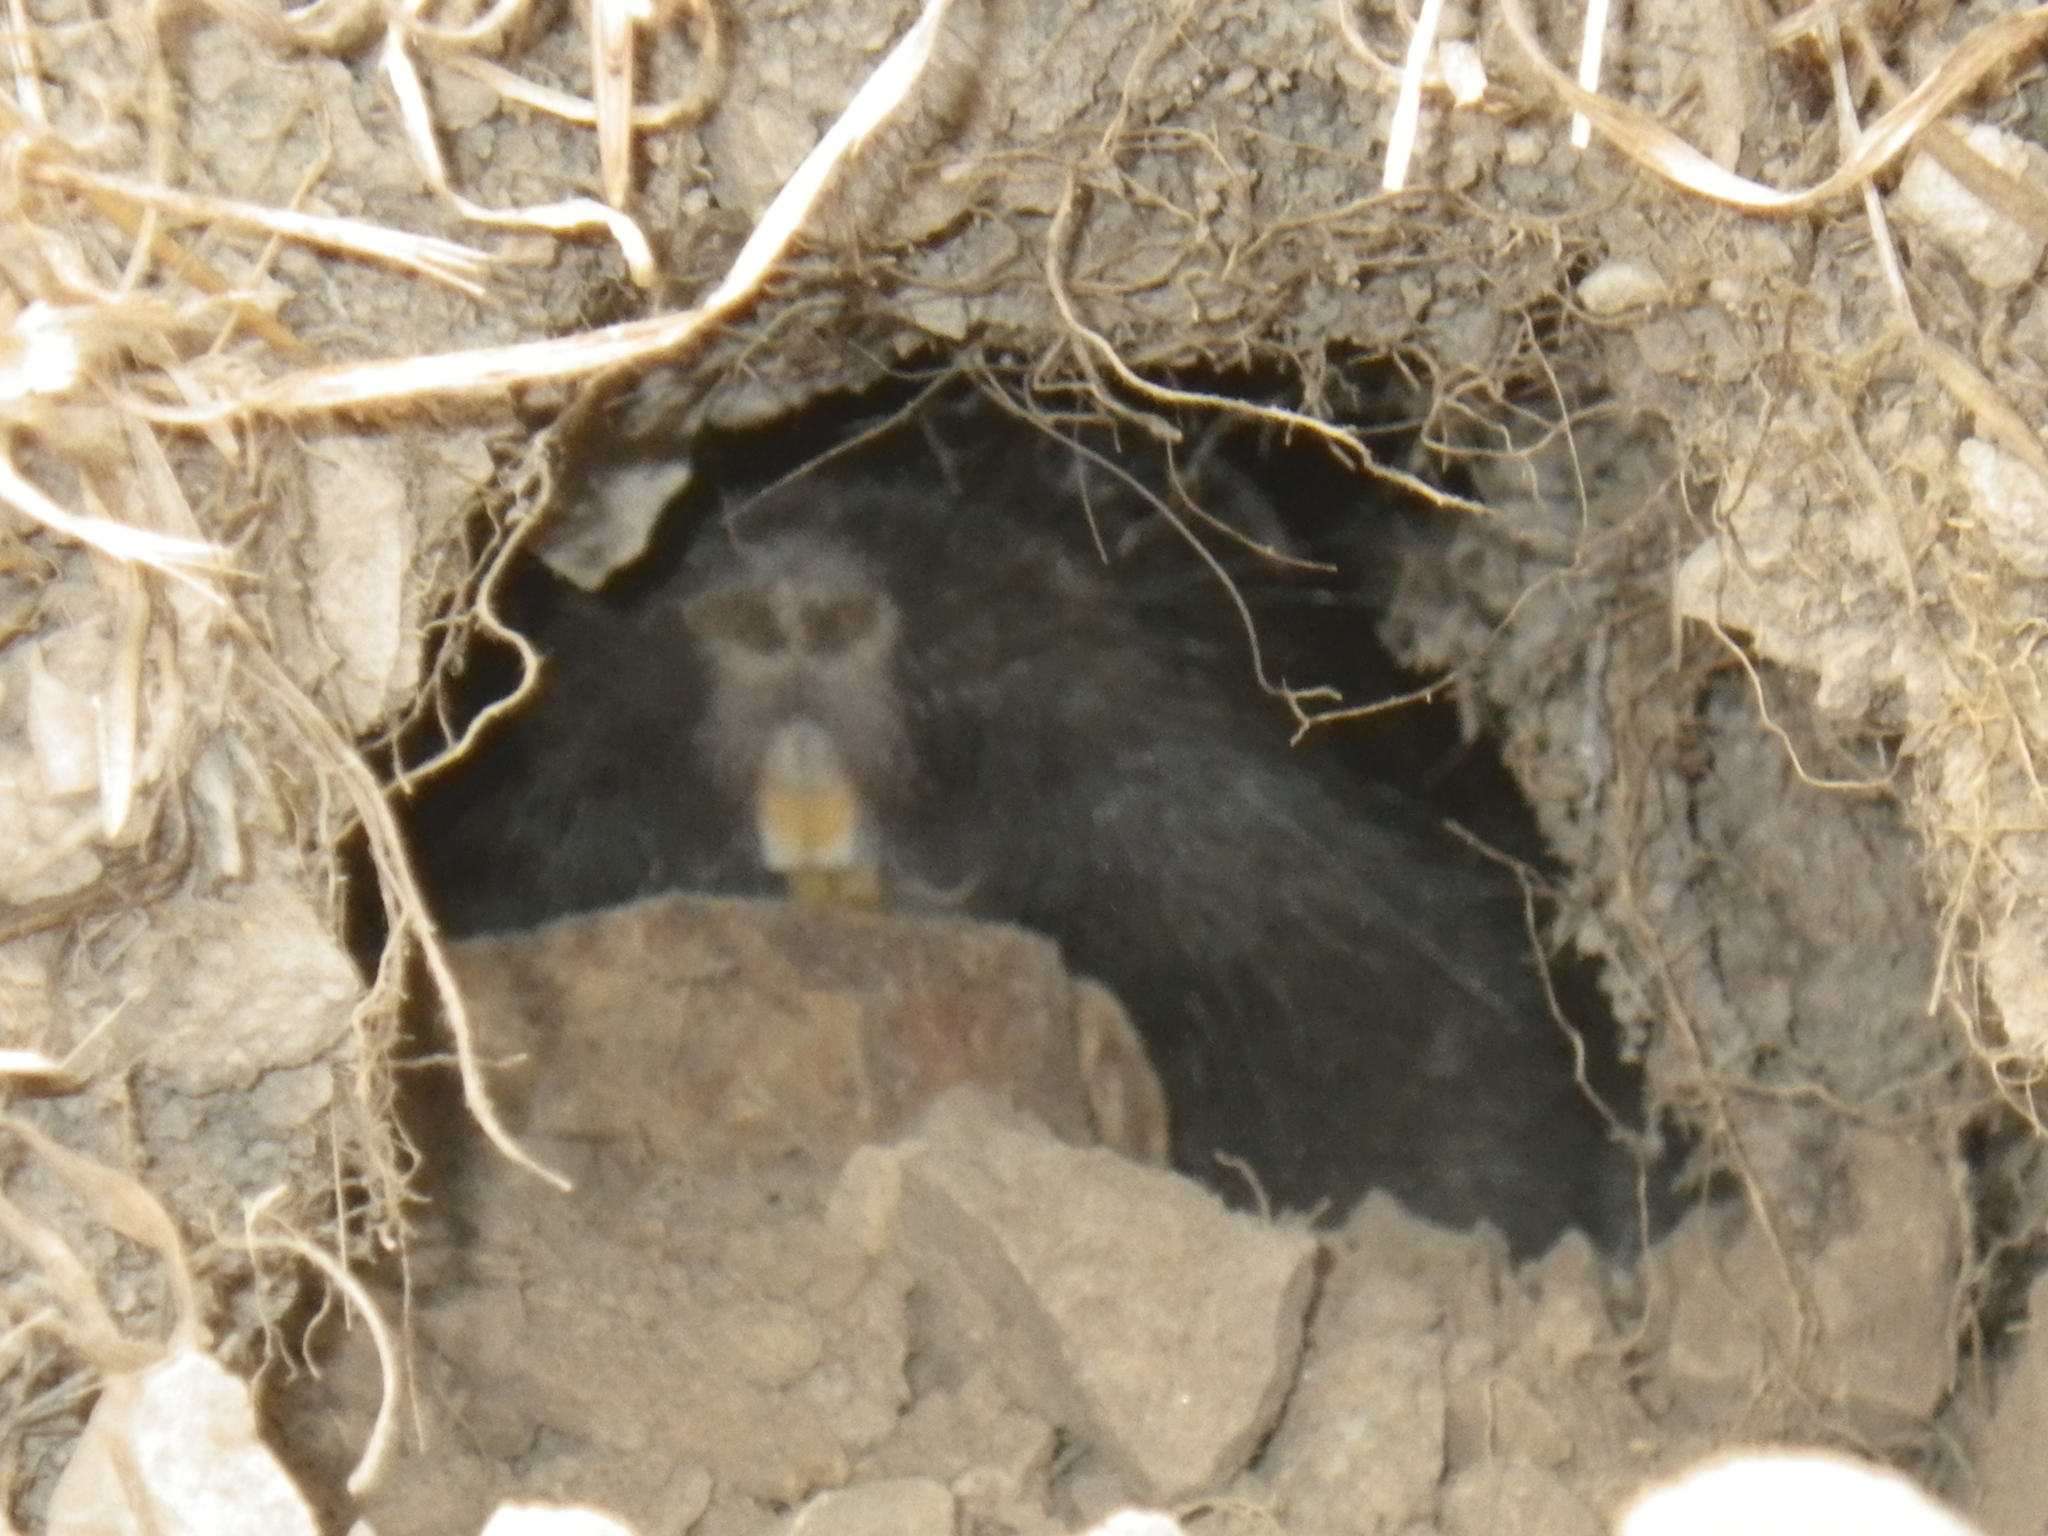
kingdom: Animalia
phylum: Chordata
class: Mammalia
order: Rodentia
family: Geomyidae
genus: Thomomys
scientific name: Thomomys bottae
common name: Botta's pocket gopher
